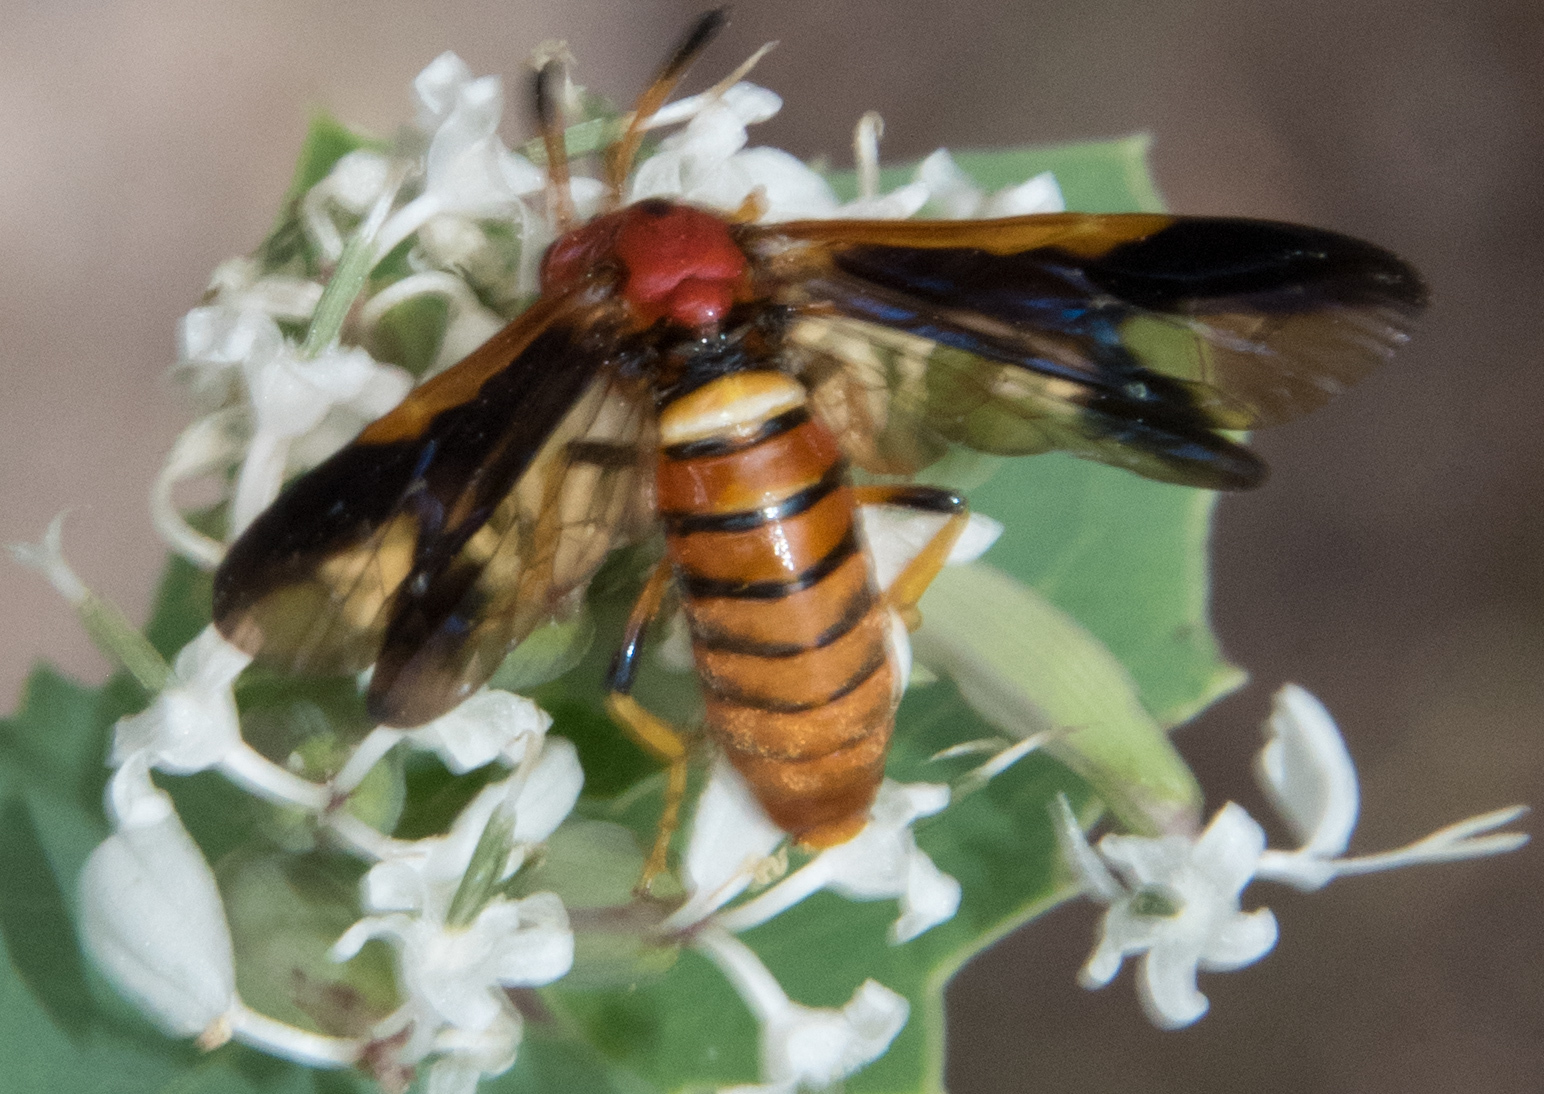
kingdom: Animalia
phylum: Arthropoda
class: Insecta
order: Hymenoptera
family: Argidae
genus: Arge
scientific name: Arge
